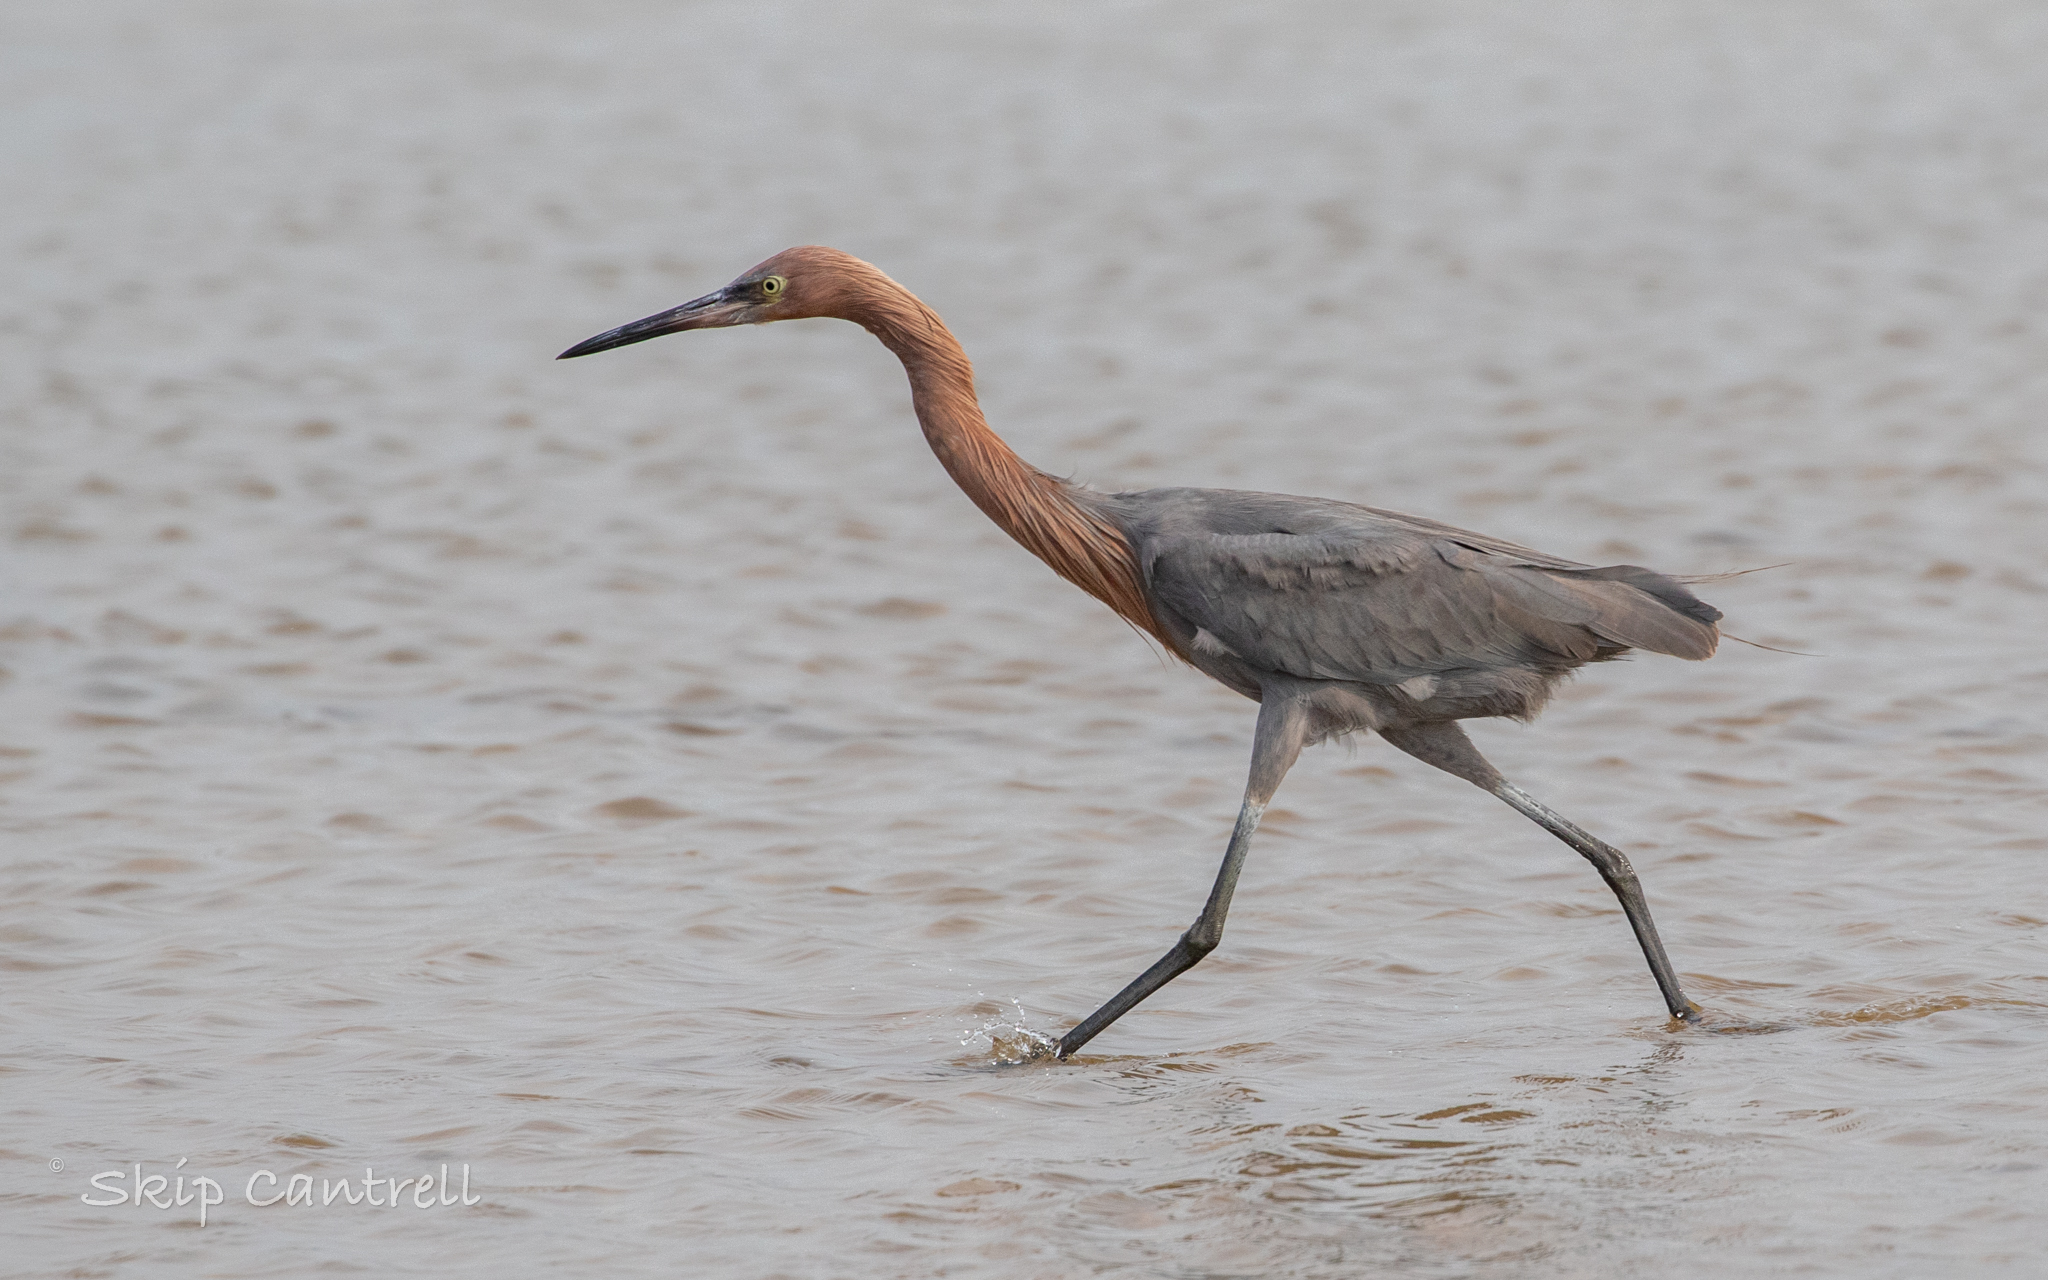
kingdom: Animalia
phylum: Chordata
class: Aves
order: Pelecaniformes
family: Ardeidae
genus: Egretta
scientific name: Egretta rufescens
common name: Reddish egret
